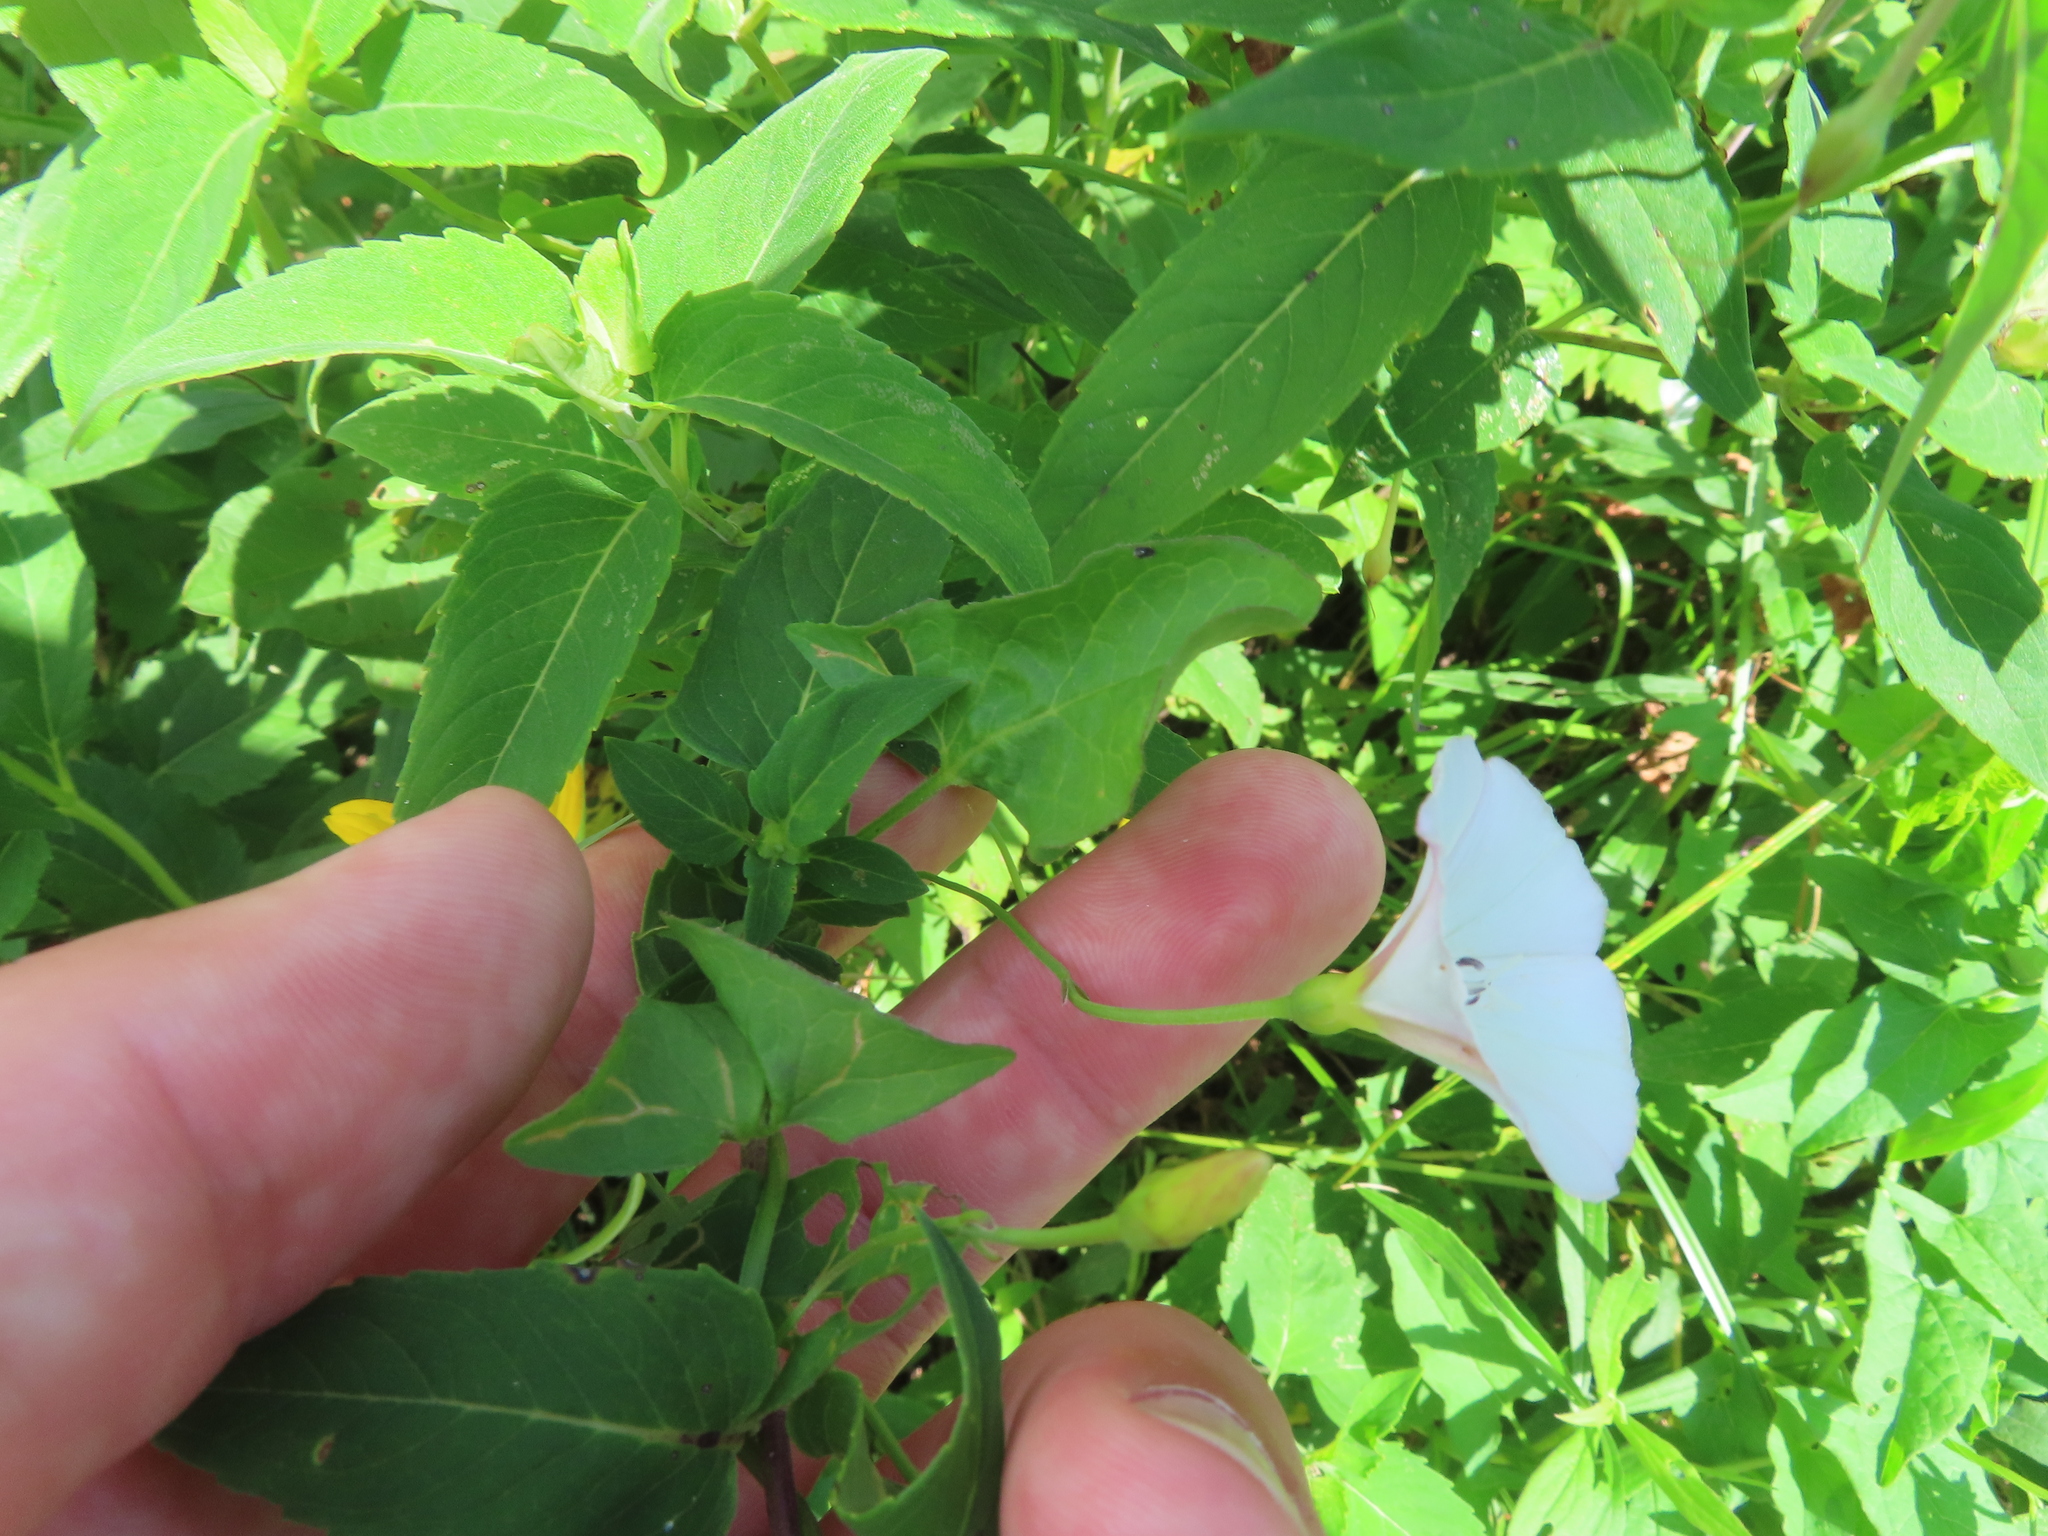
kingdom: Plantae
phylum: Tracheophyta
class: Magnoliopsida
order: Solanales
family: Convolvulaceae
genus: Convolvulus
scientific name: Convolvulus arvensis
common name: Field bindweed
